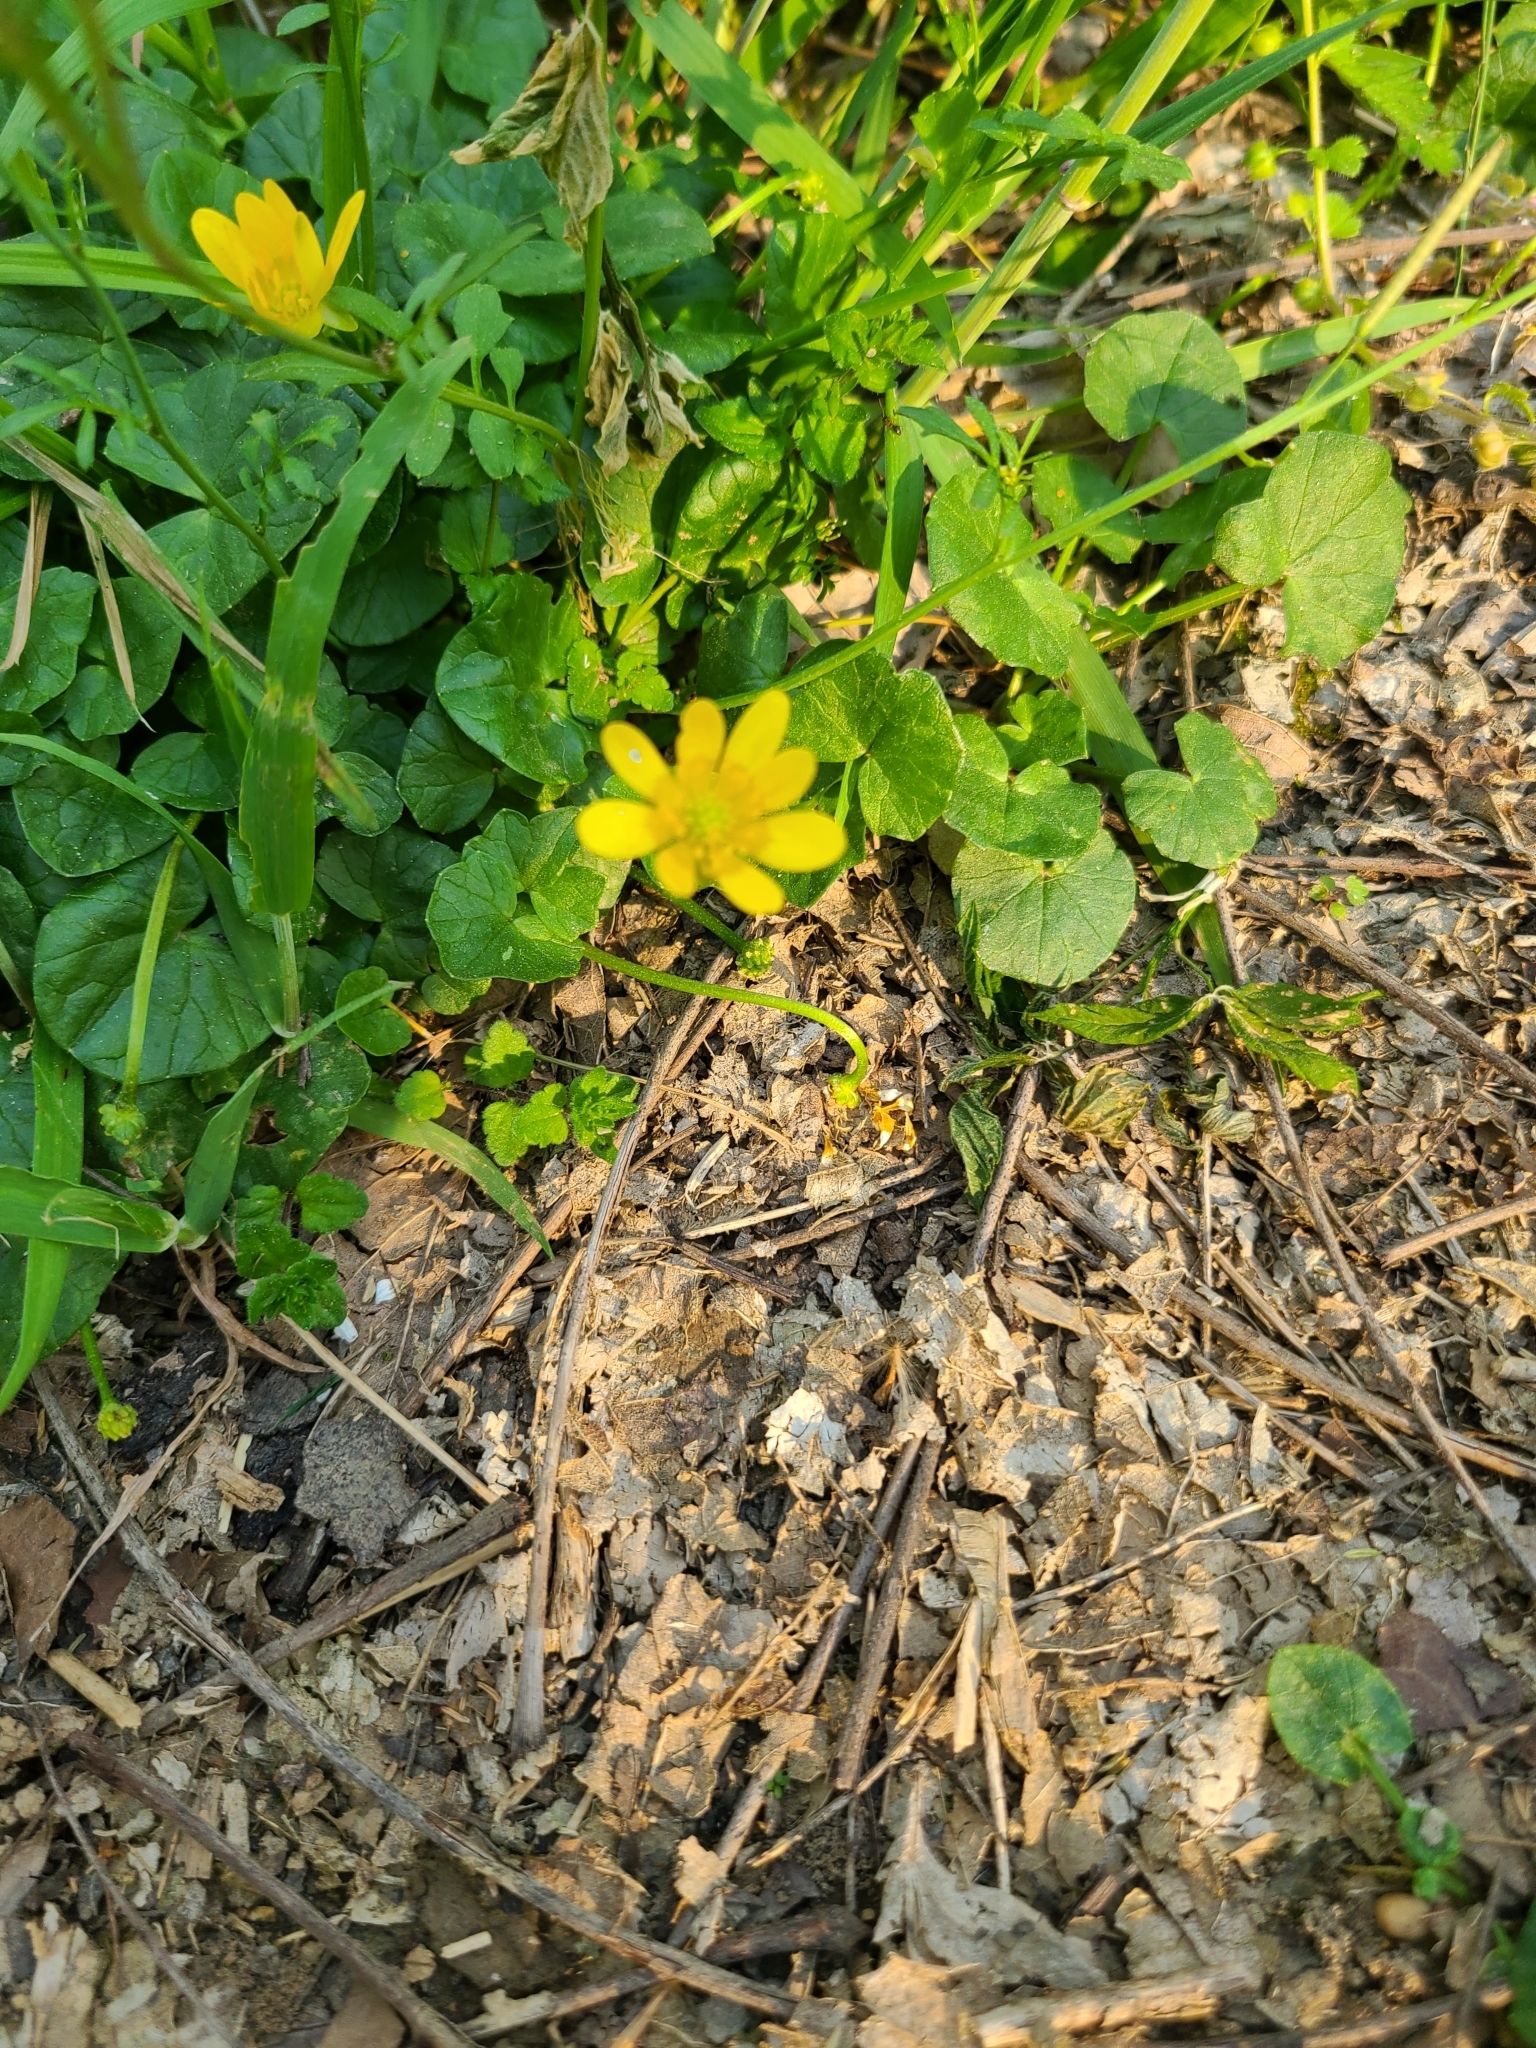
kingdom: Plantae
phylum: Tracheophyta
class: Magnoliopsida
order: Ranunculales
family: Ranunculaceae
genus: Ficaria
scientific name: Ficaria verna
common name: Lesser celandine
